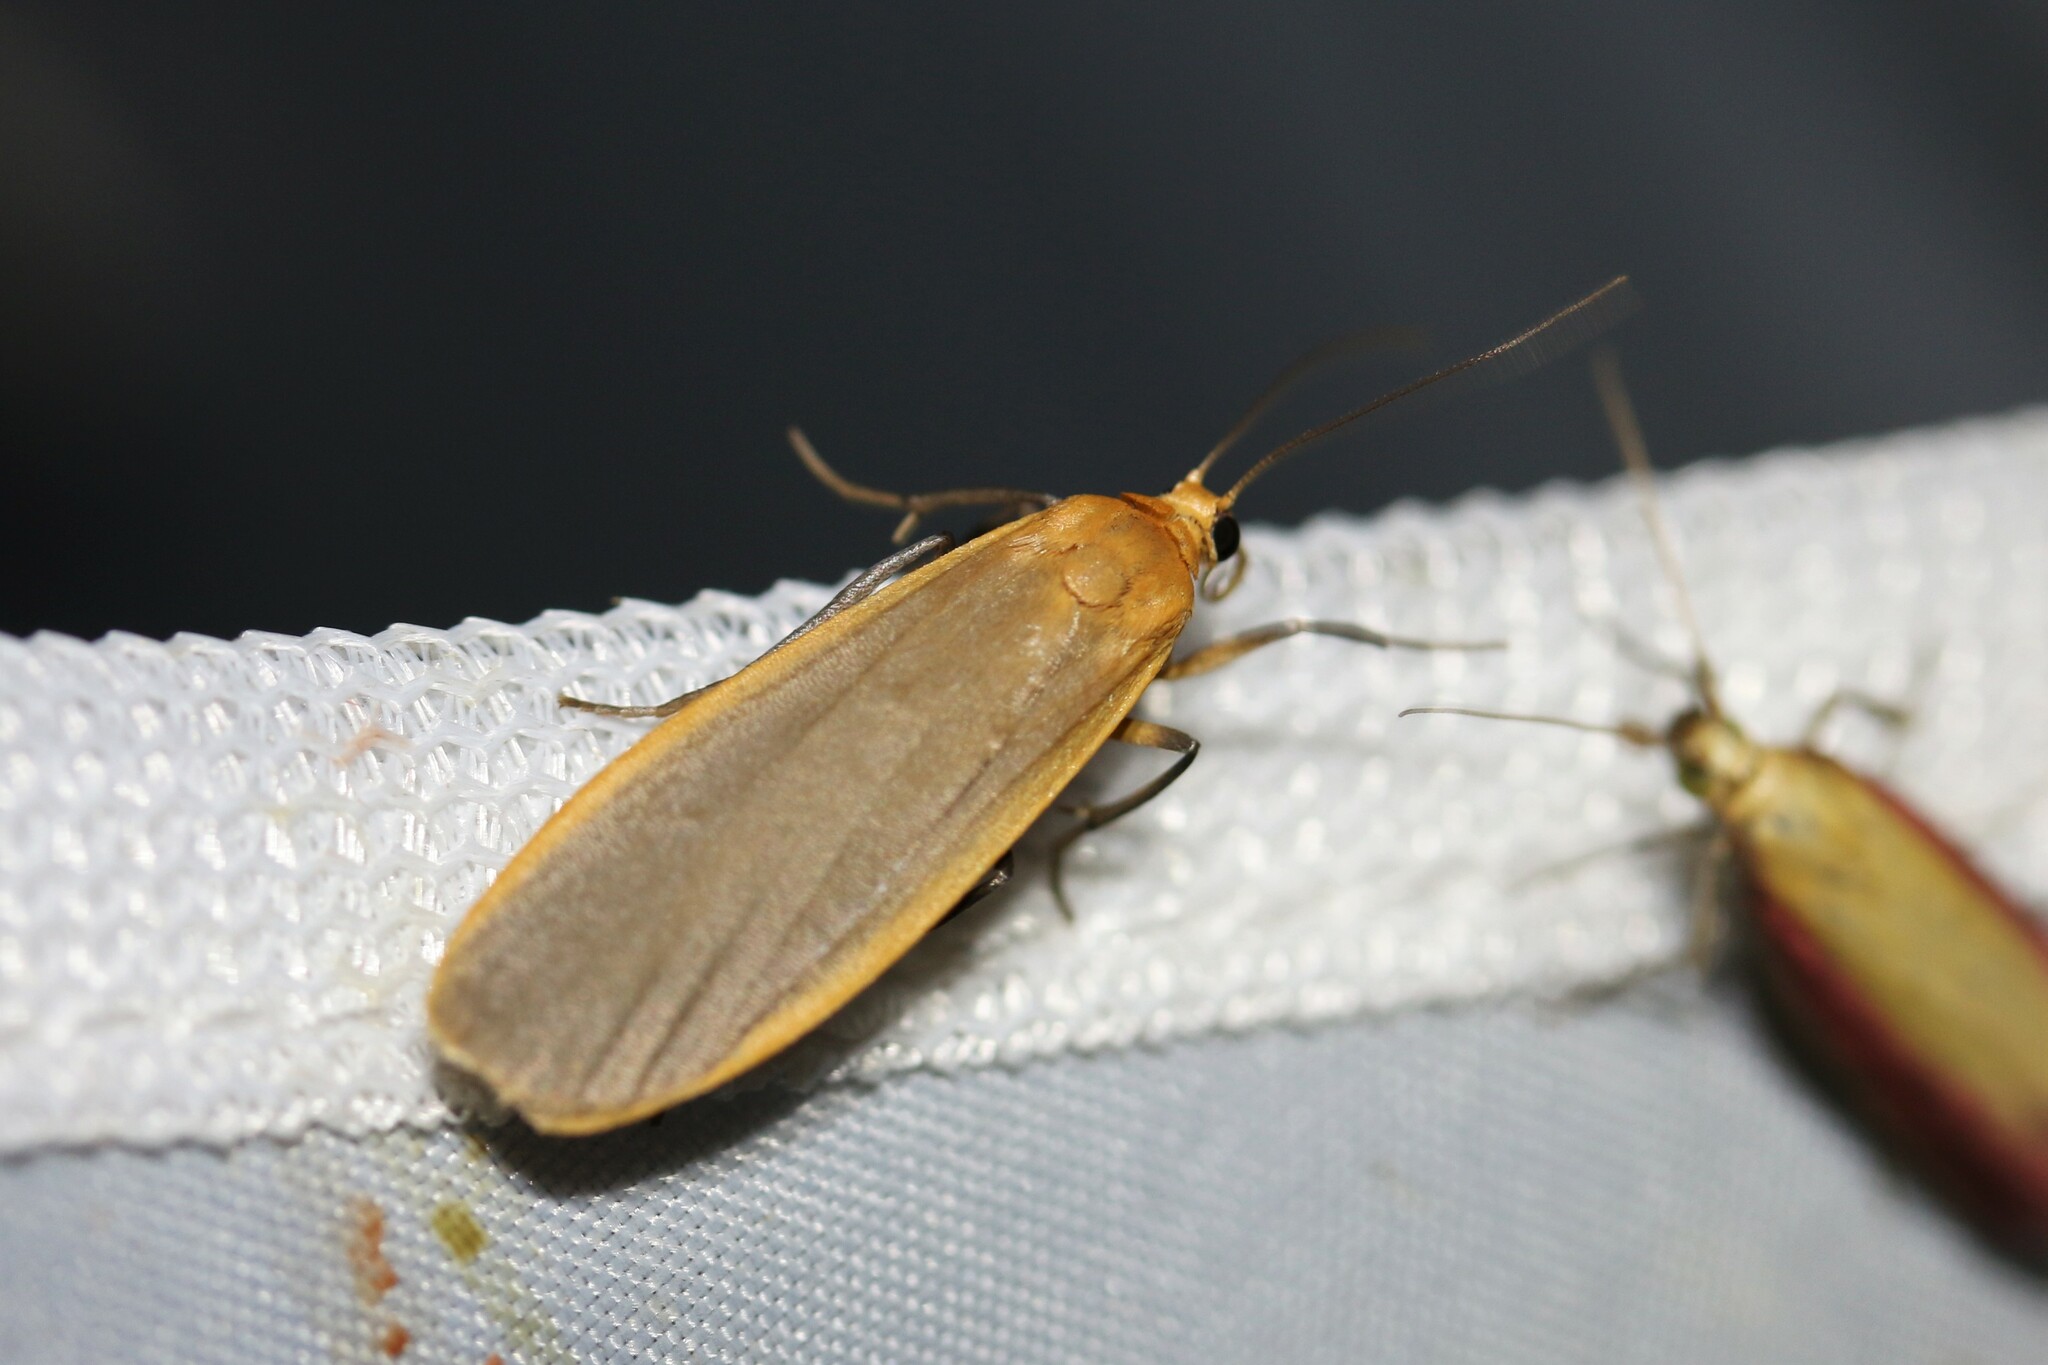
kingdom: Animalia
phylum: Arthropoda
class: Insecta
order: Lepidoptera
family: Erebidae
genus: Katha
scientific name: Katha depressa
